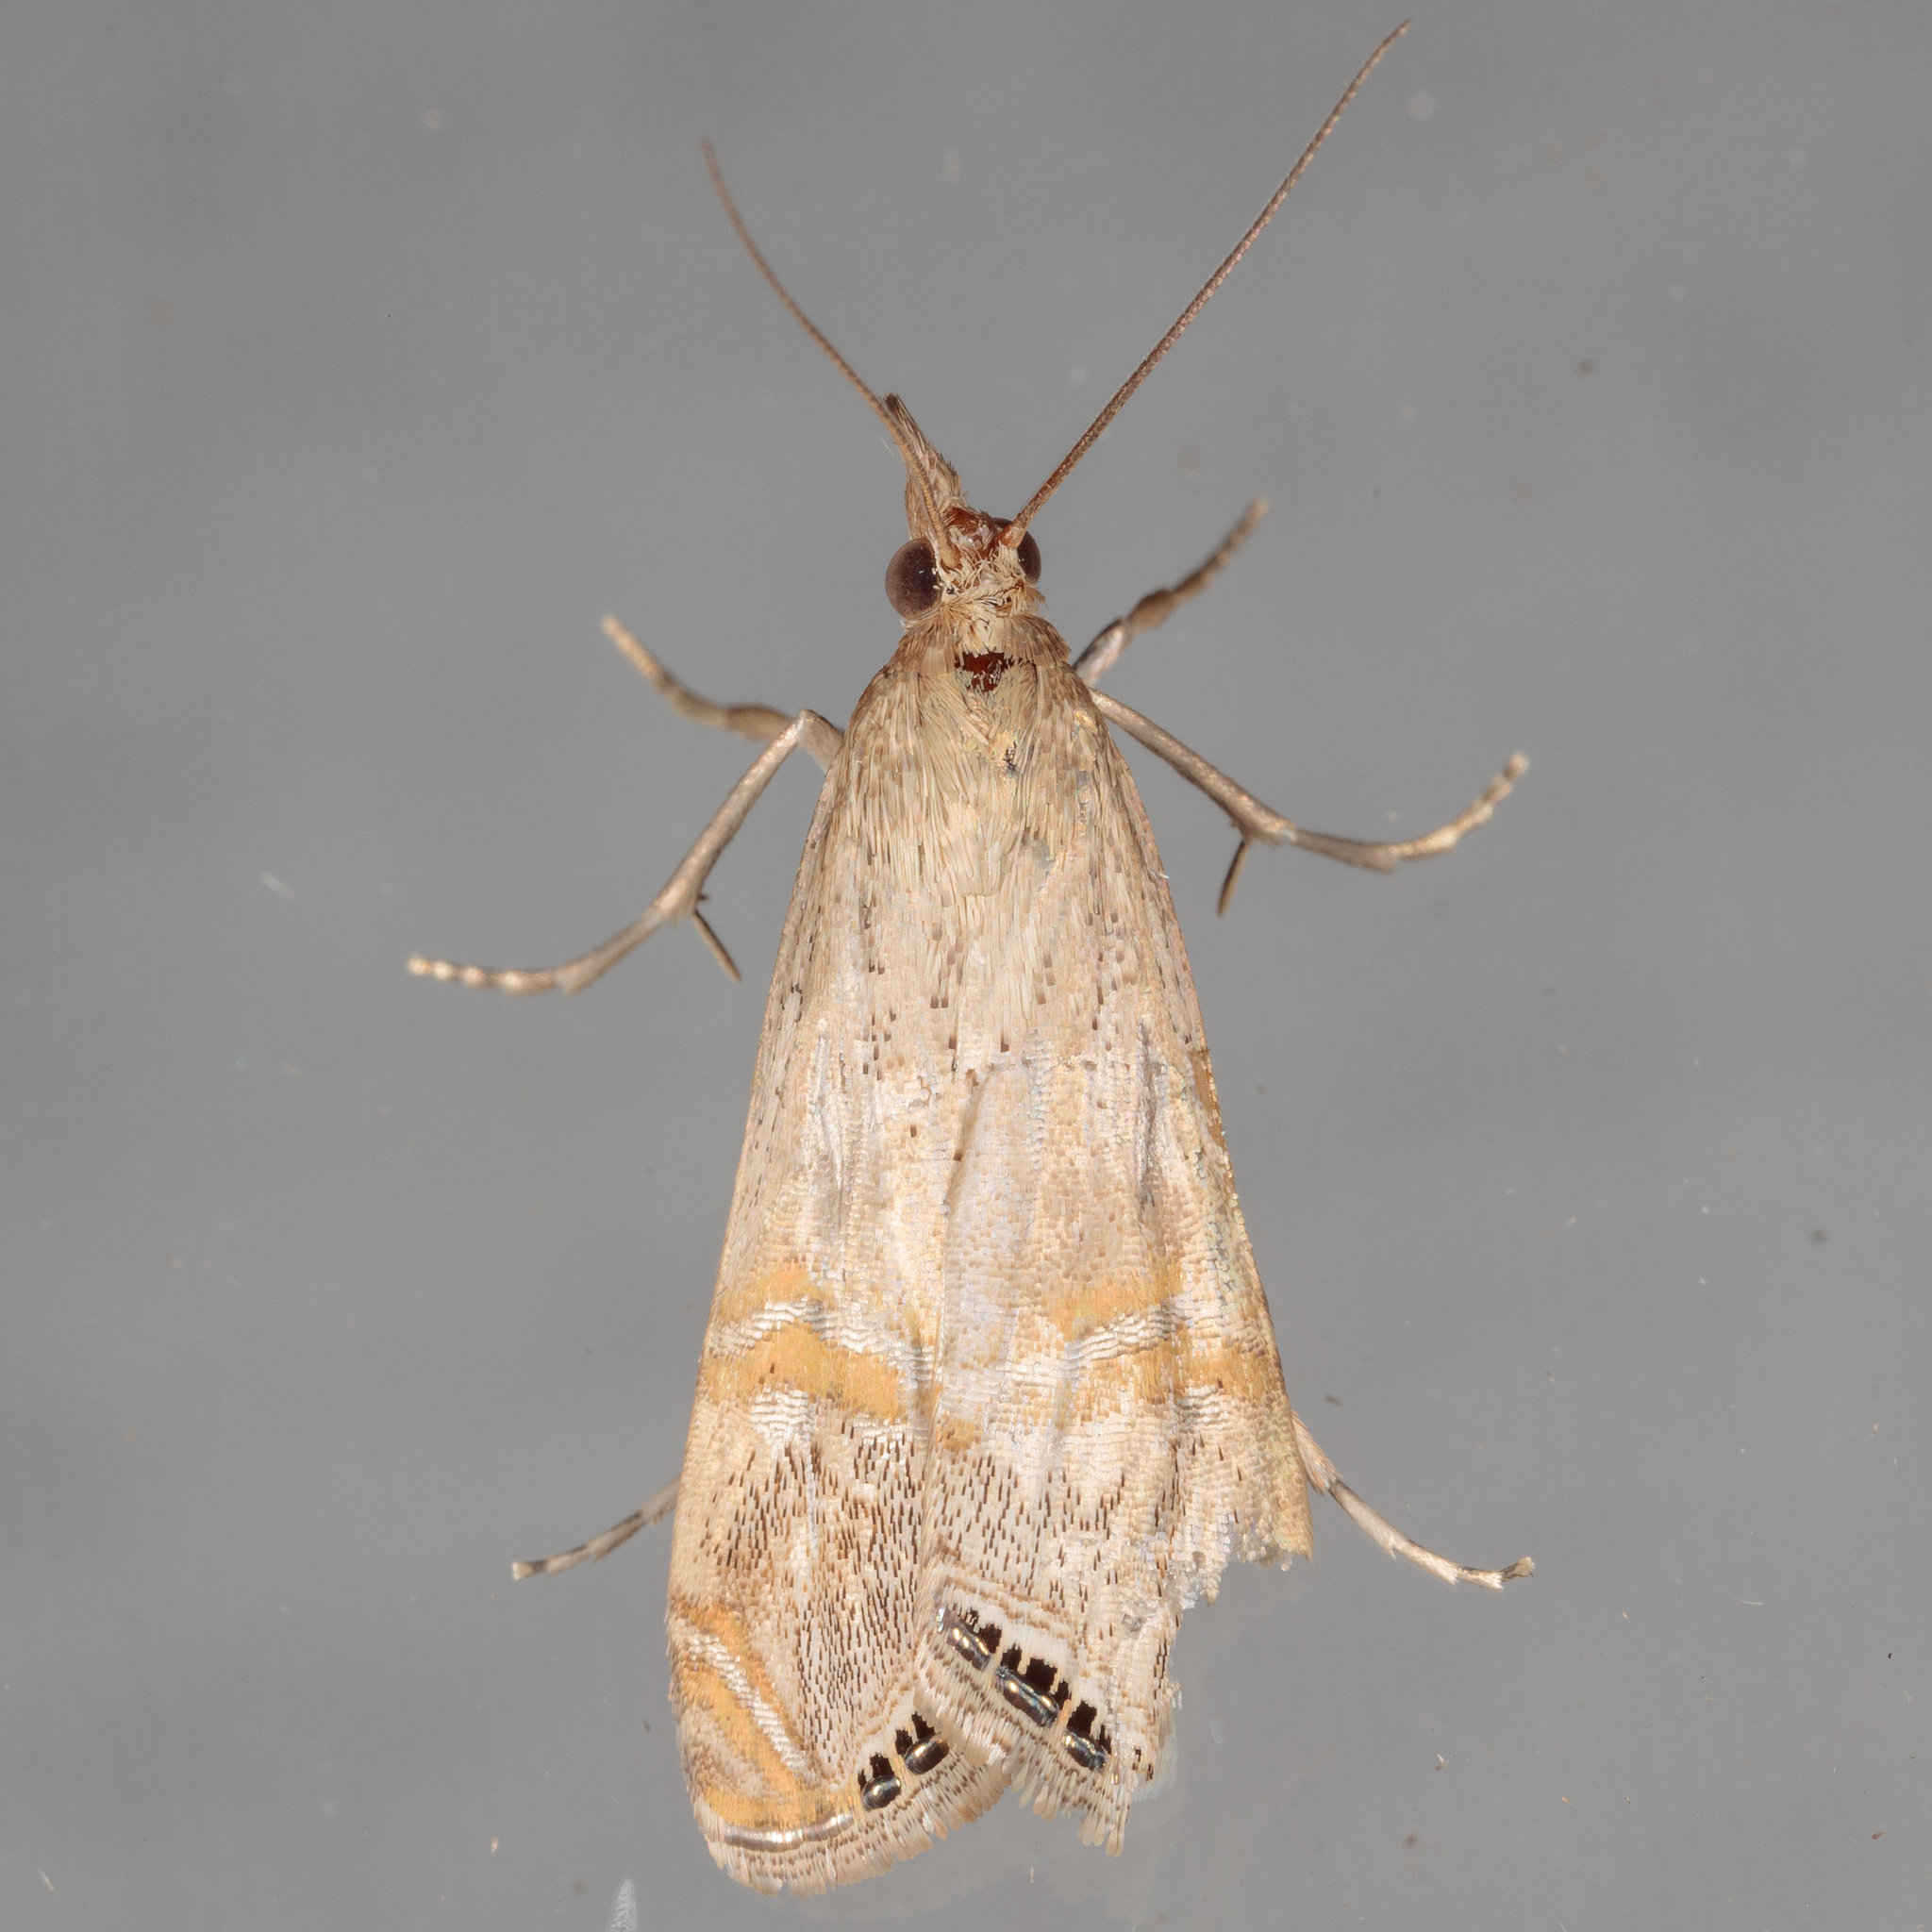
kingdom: Animalia
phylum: Arthropoda
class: Insecta
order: Lepidoptera
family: Crambidae
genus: Euchromius
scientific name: Euchromius ocellea
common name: Necklace veneer moth
